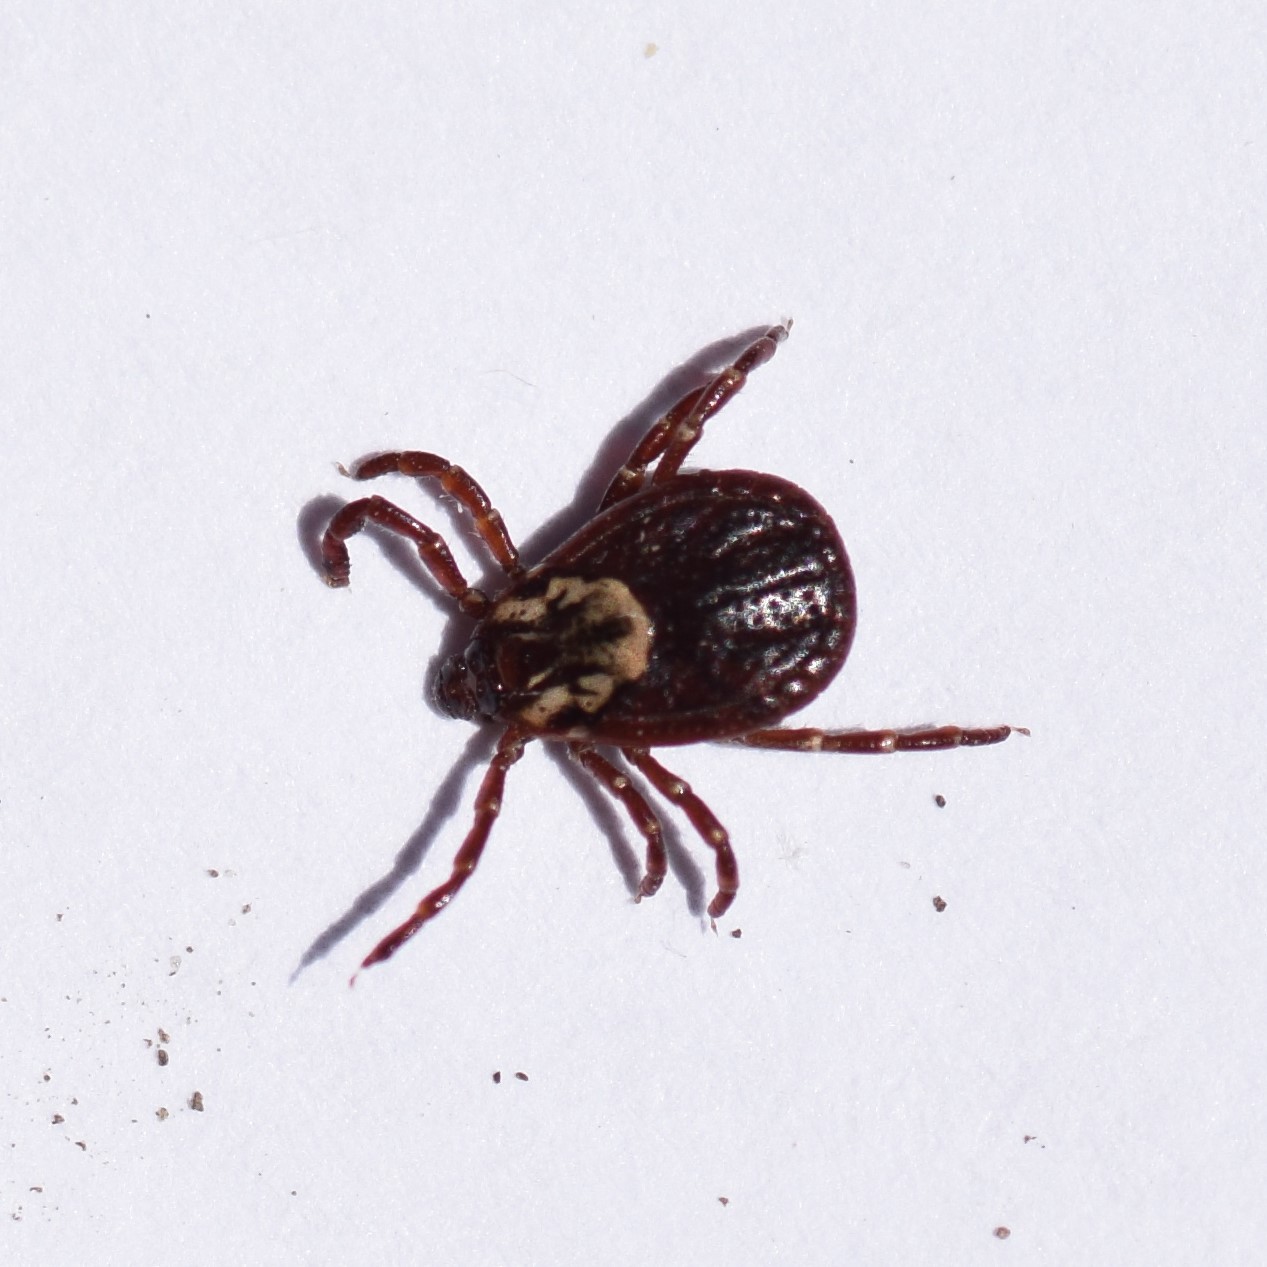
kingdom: Animalia
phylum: Arthropoda
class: Arachnida
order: Ixodida
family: Ixodidae
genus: Dermacentor
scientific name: Dermacentor variabilis
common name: American dog tick
